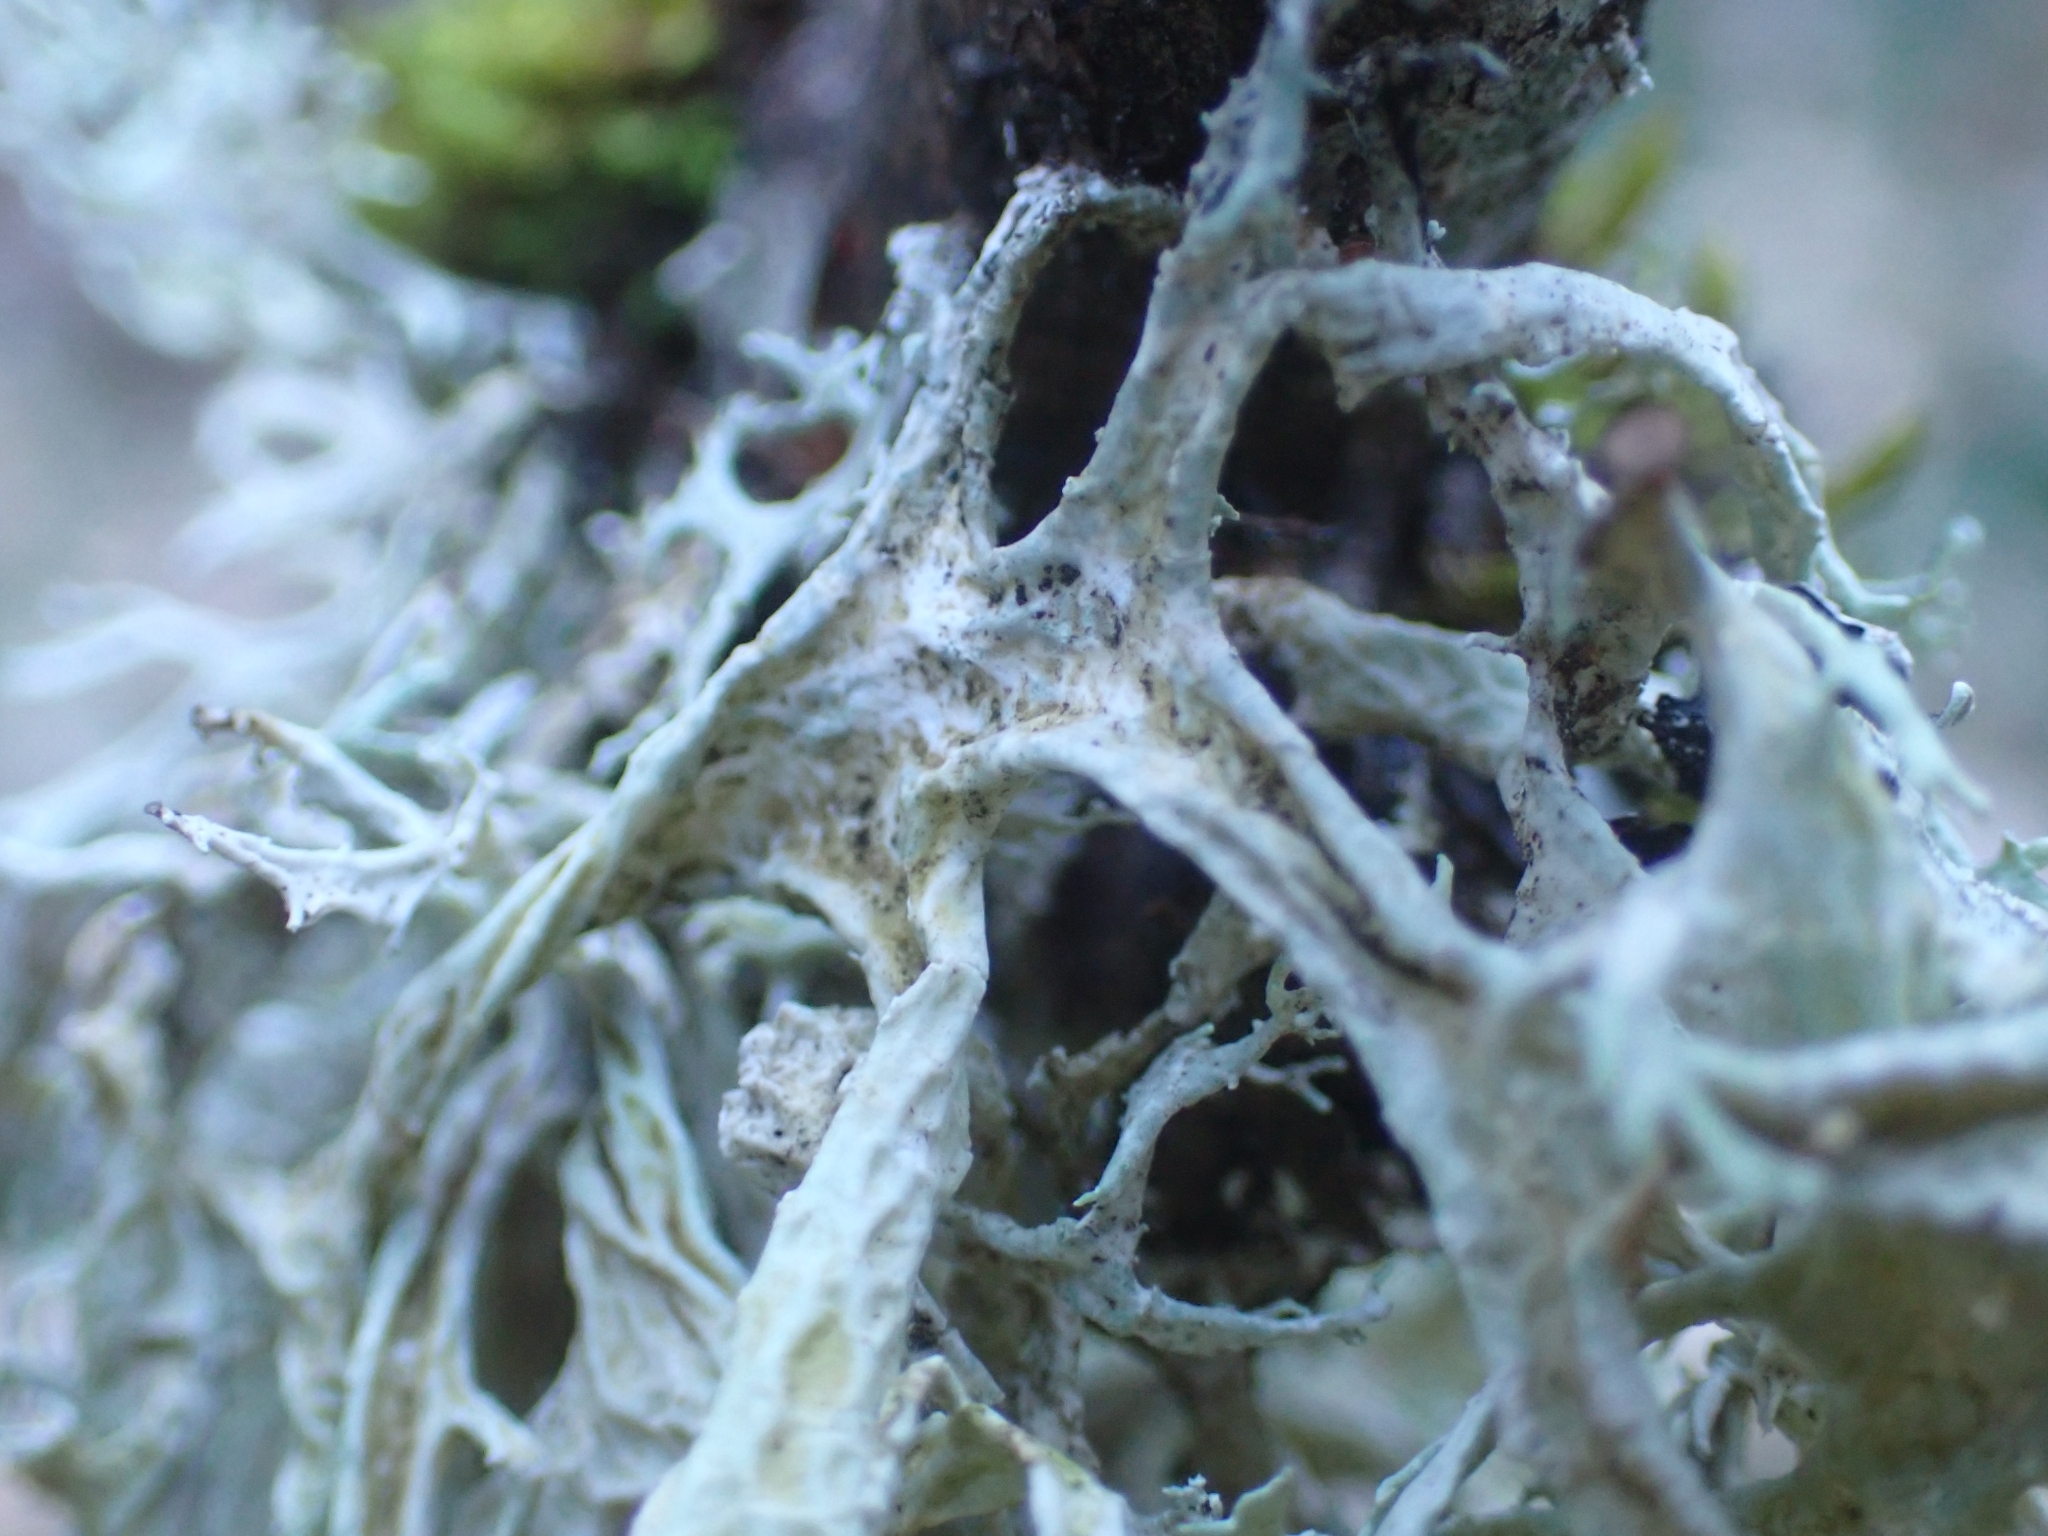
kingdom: Fungi
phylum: Ascomycota
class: Lecanoromycetes
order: Lecanorales
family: Parmeliaceae
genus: Evernia
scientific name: Evernia prunastri
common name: Oak moss
